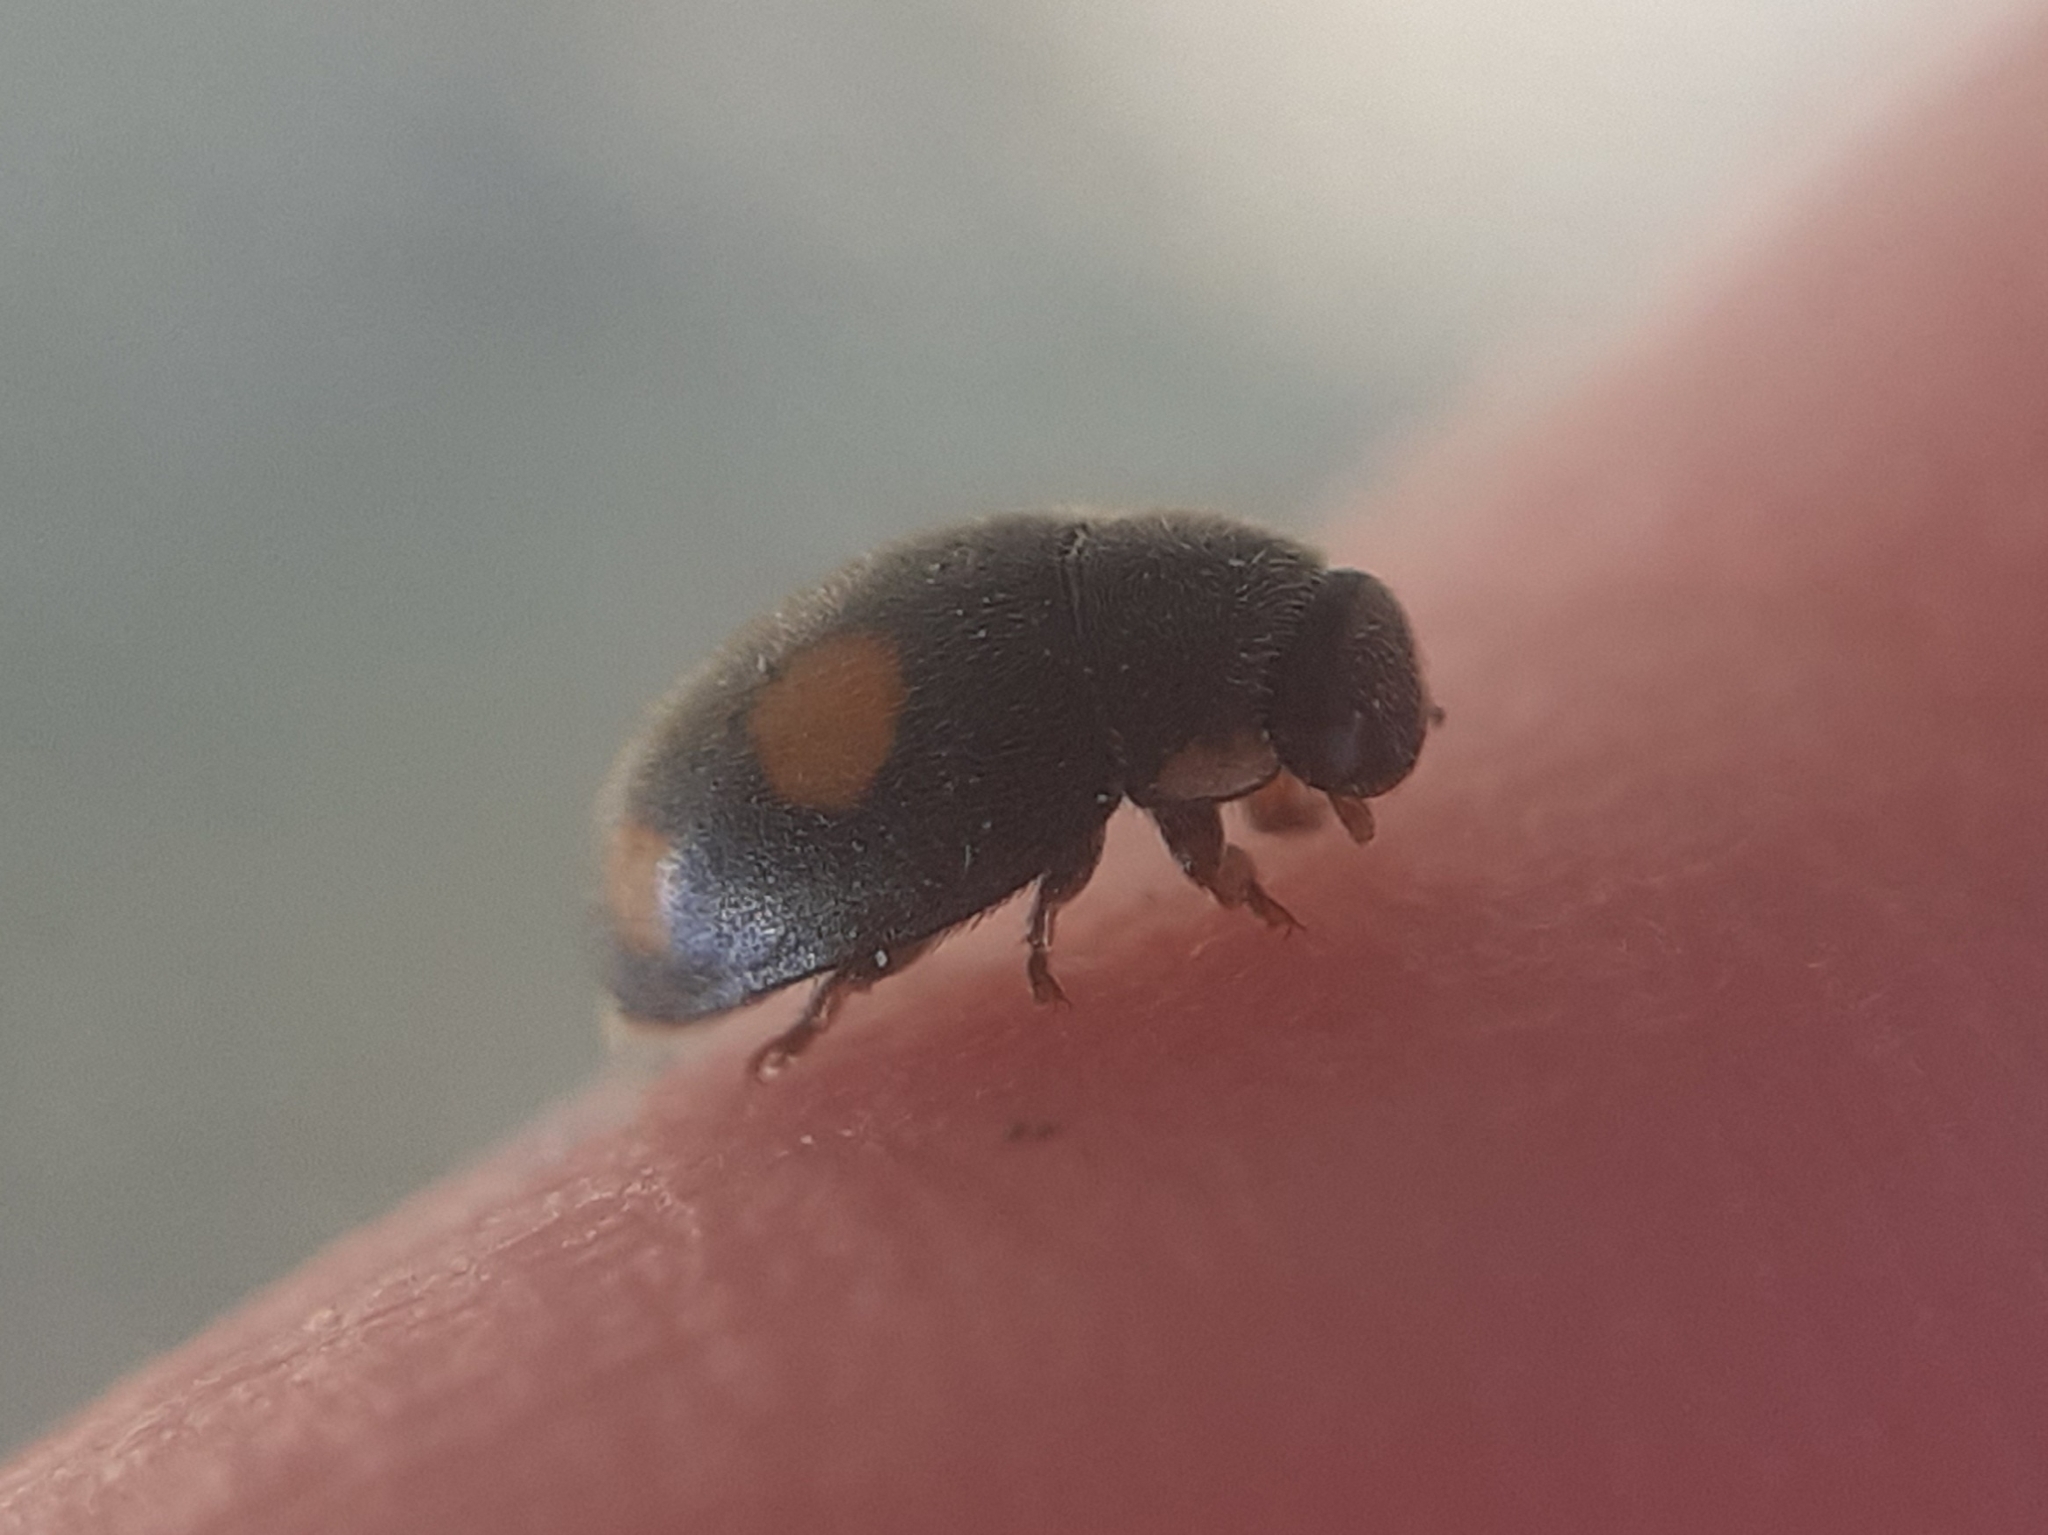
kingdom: Animalia
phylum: Arthropoda
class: Insecta
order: Coleoptera
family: Coccinellidae
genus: Platynaspis
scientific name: Platynaspis luteorubra
